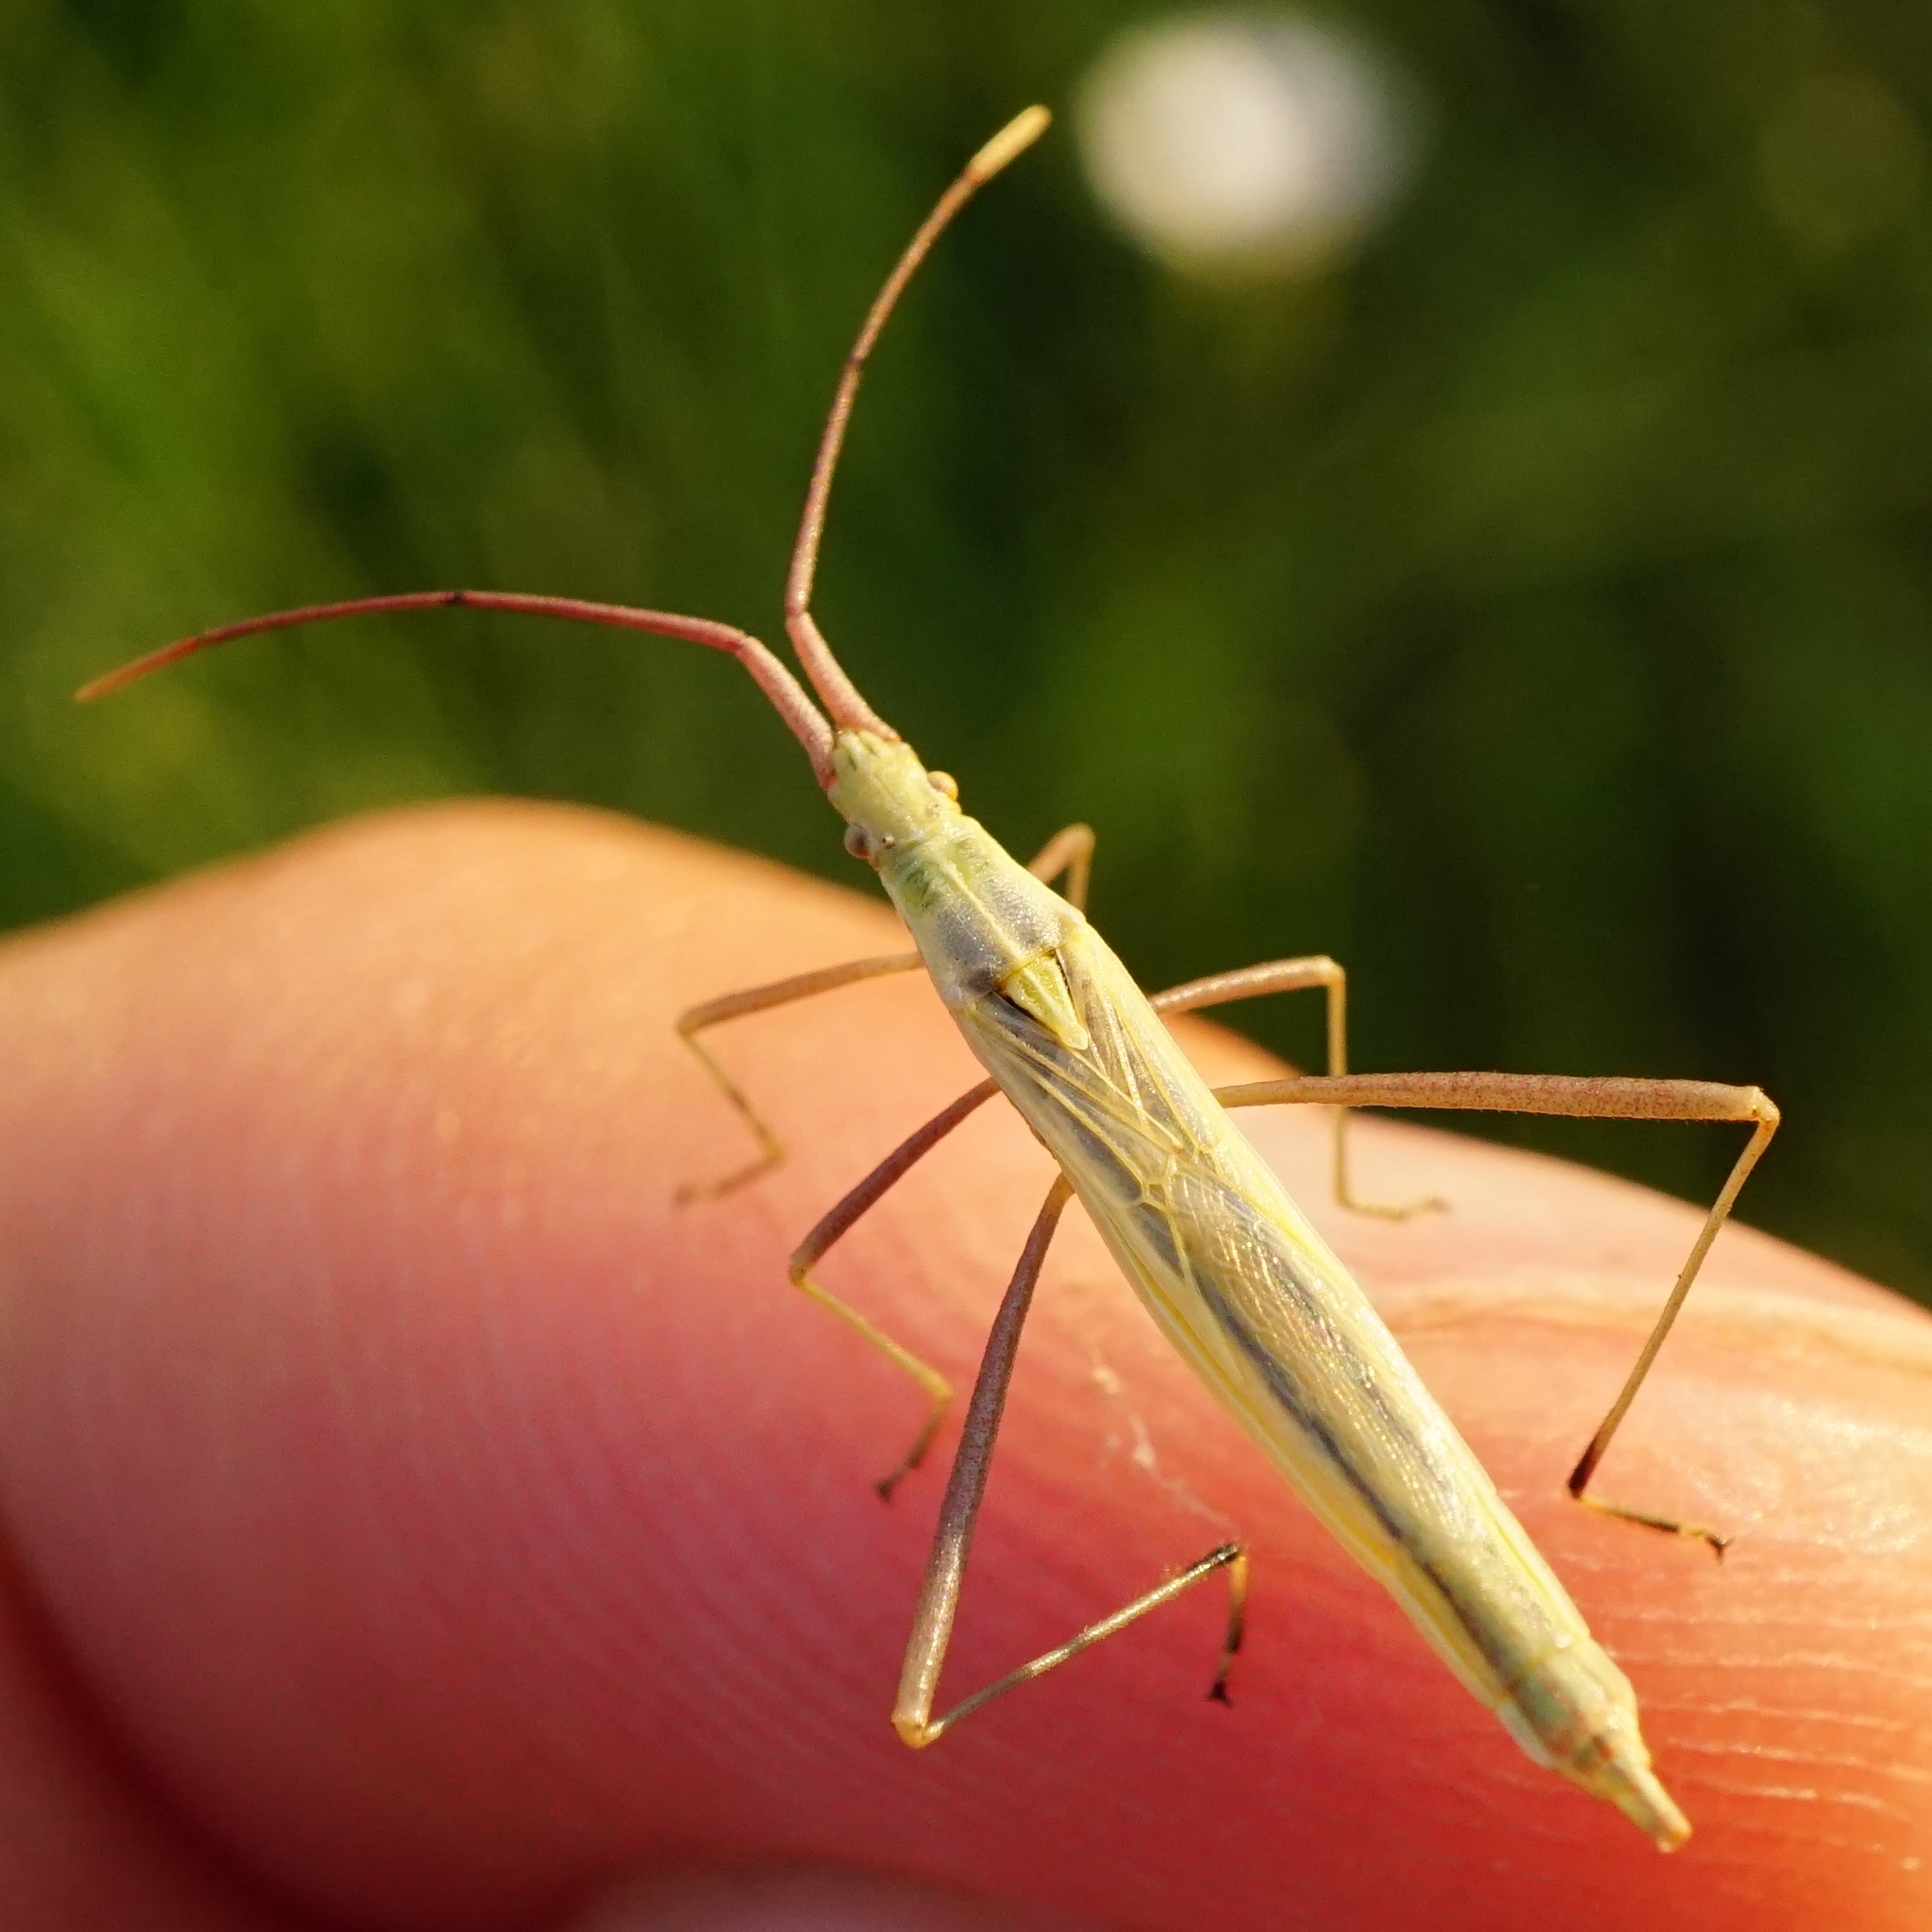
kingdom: Animalia
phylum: Arthropoda
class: Insecta
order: Hemiptera
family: Rhopalidae
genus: Chorosoma
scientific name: Chorosoma schillingii
